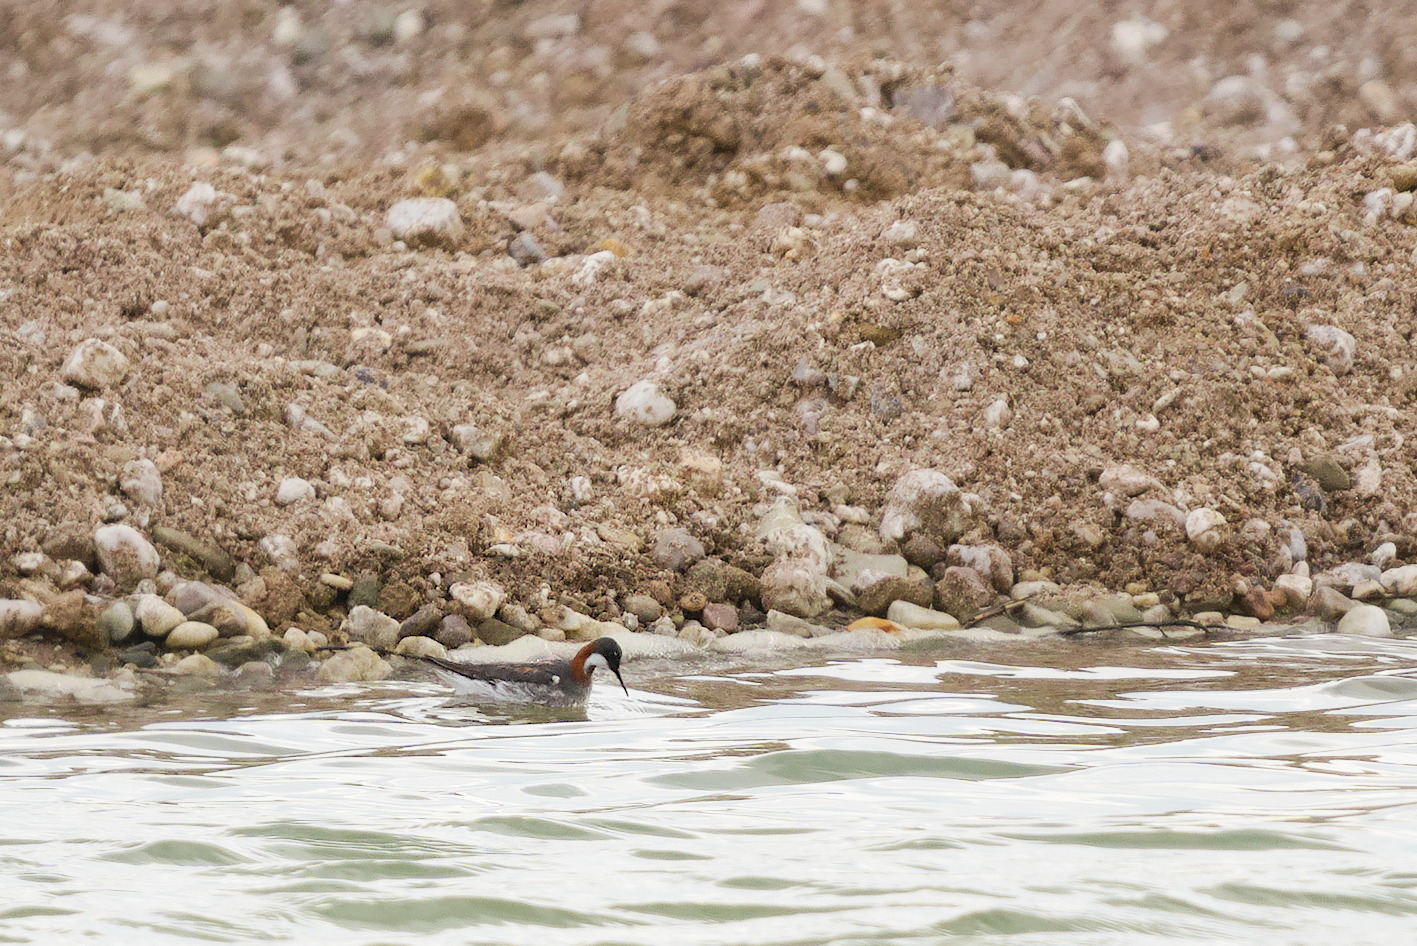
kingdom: Animalia
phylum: Chordata
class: Aves
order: Charadriiformes
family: Scolopacidae
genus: Phalaropus
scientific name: Phalaropus lobatus
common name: Red-necked phalarope
